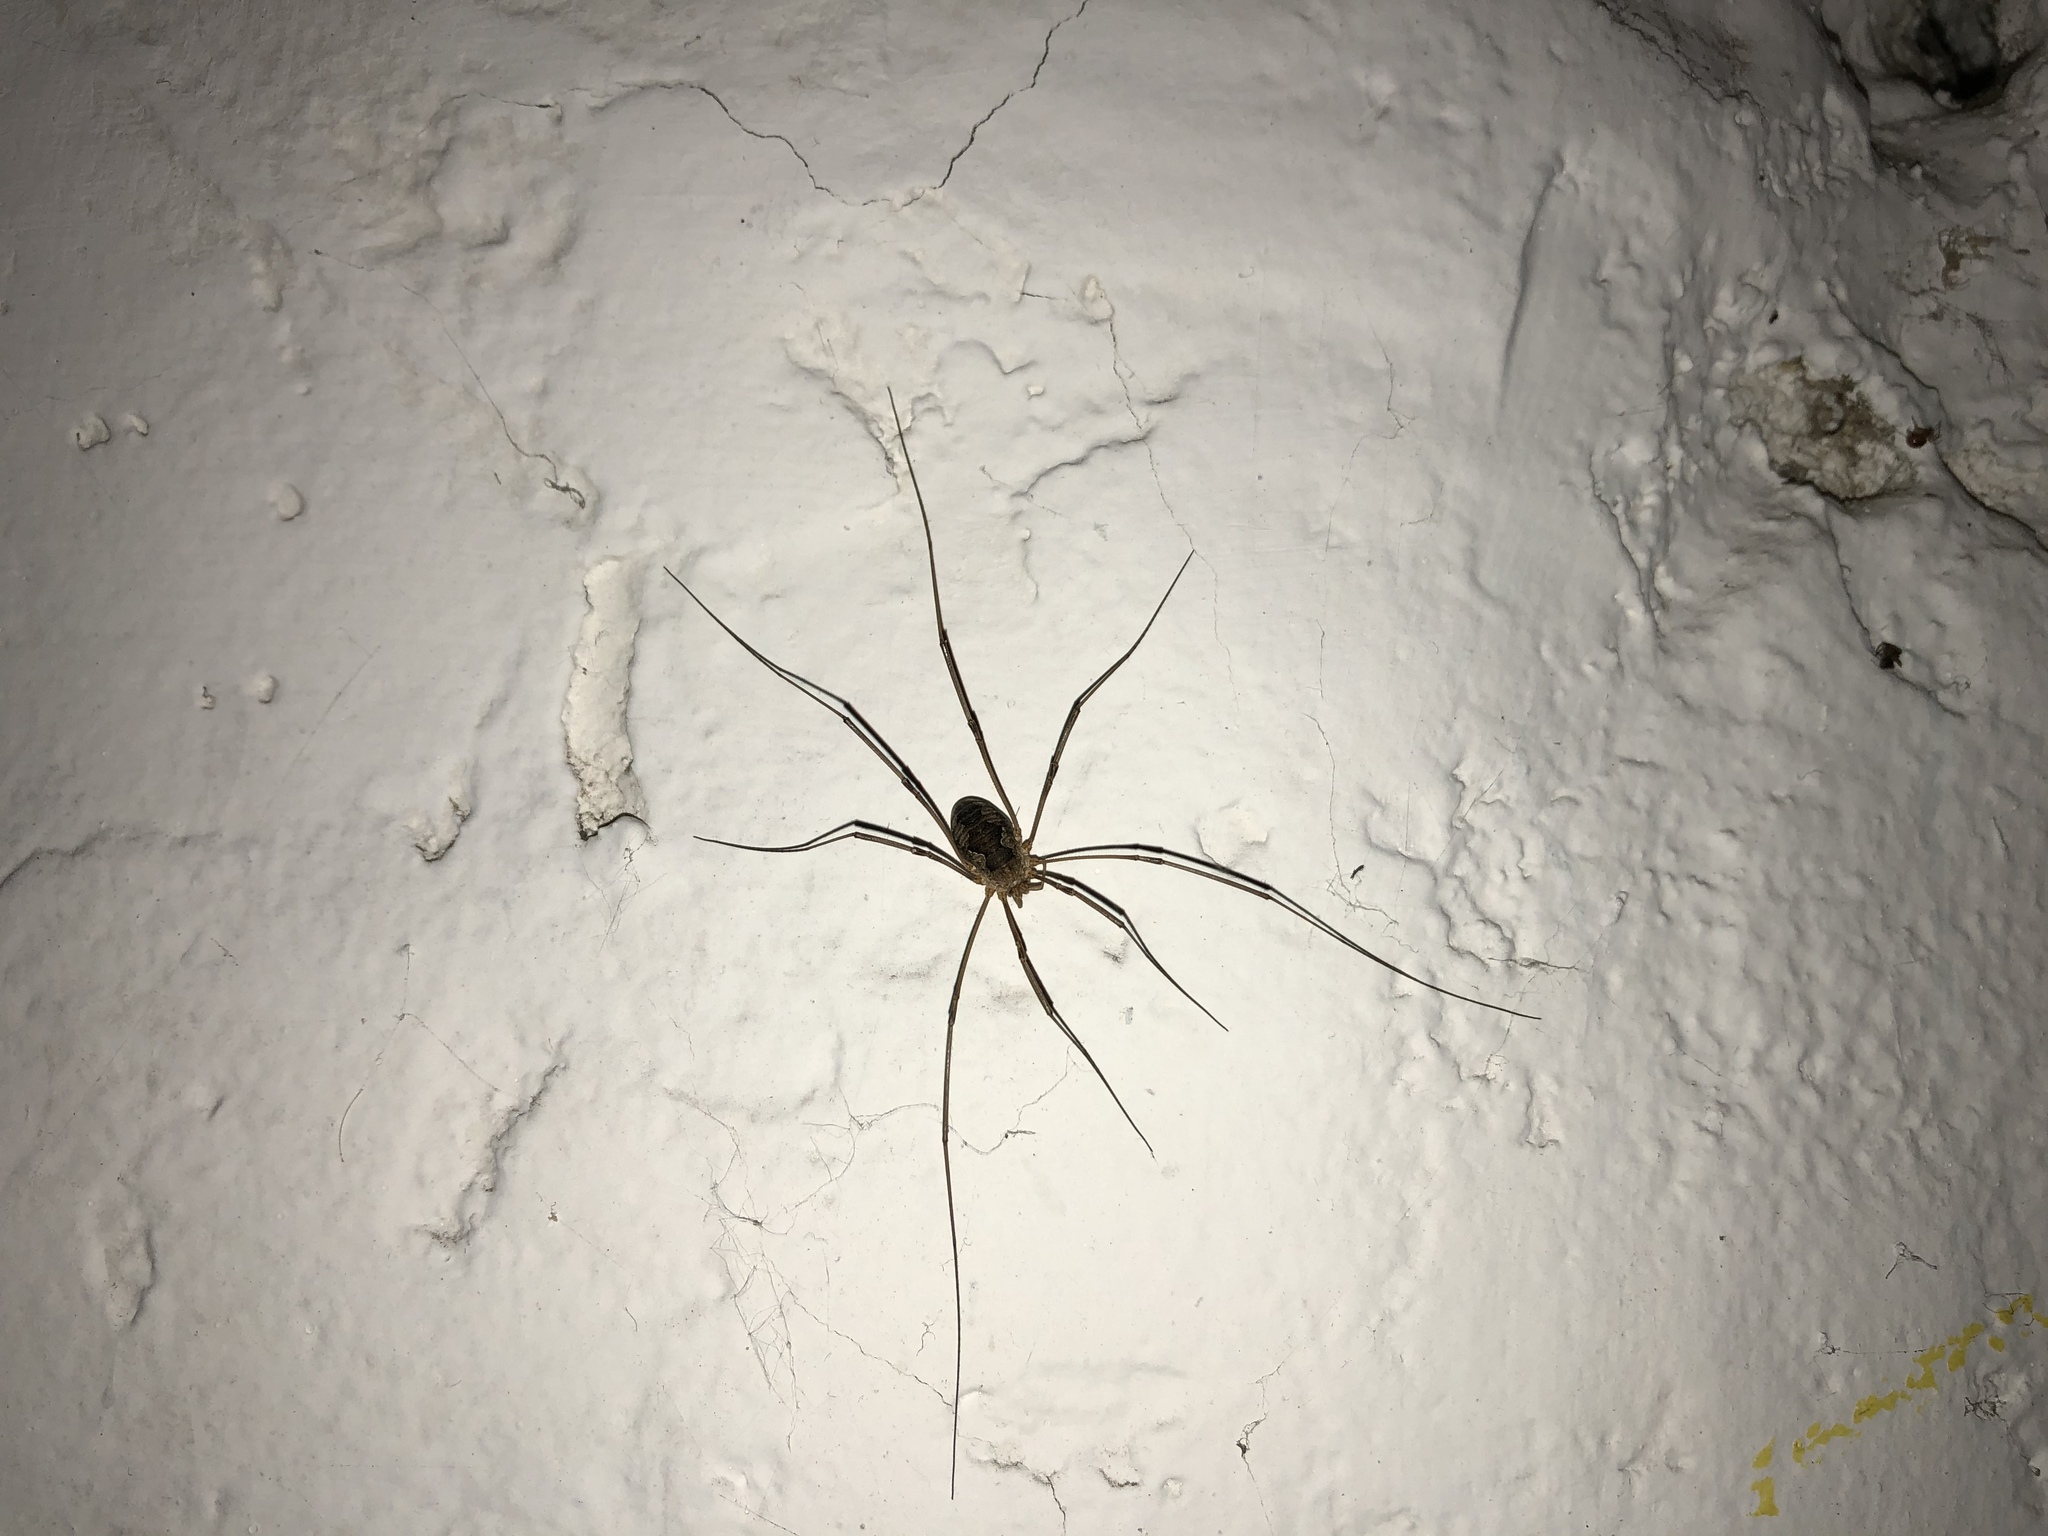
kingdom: Animalia
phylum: Arthropoda
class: Arachnida
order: Opiliones
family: Phalangiidae
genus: Phalangium
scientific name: Phalangium opilio
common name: Daddy longleg
